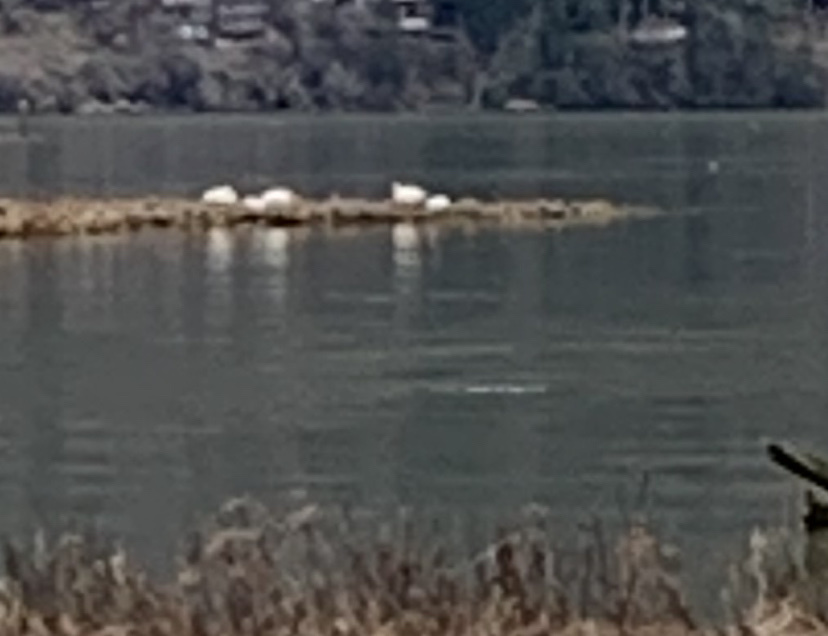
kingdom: Animalia
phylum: Chordata
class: Aves
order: Anseriformes
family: Anatidae
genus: Cygnus
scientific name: Cygnus buccinator
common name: Trumpeter swan
